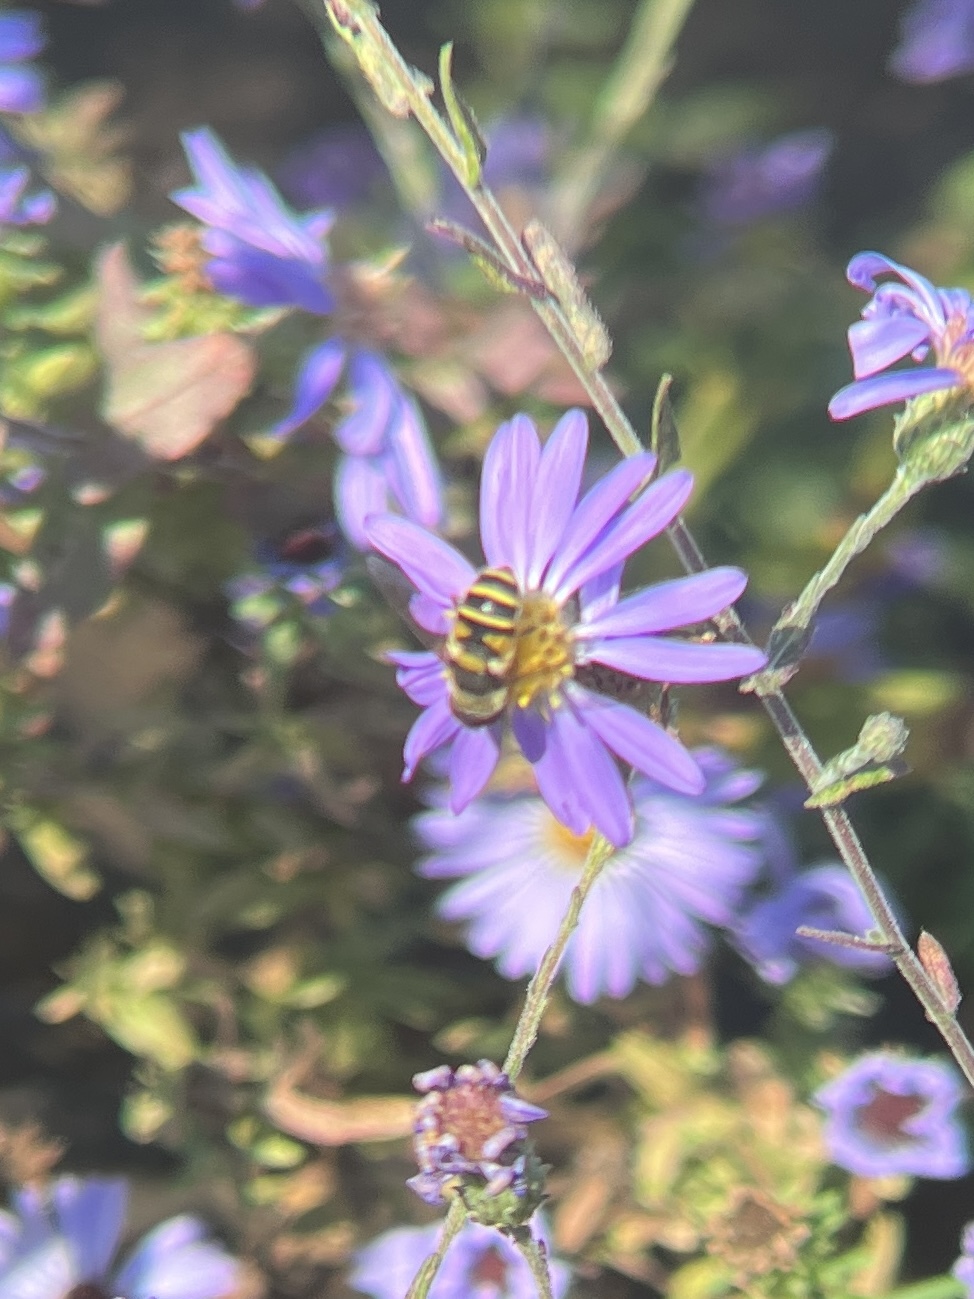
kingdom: Animalia
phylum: Arthropoda
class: Insecta
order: Diptera
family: Syrphidae
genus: Eristalis
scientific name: Eristalis transversa
